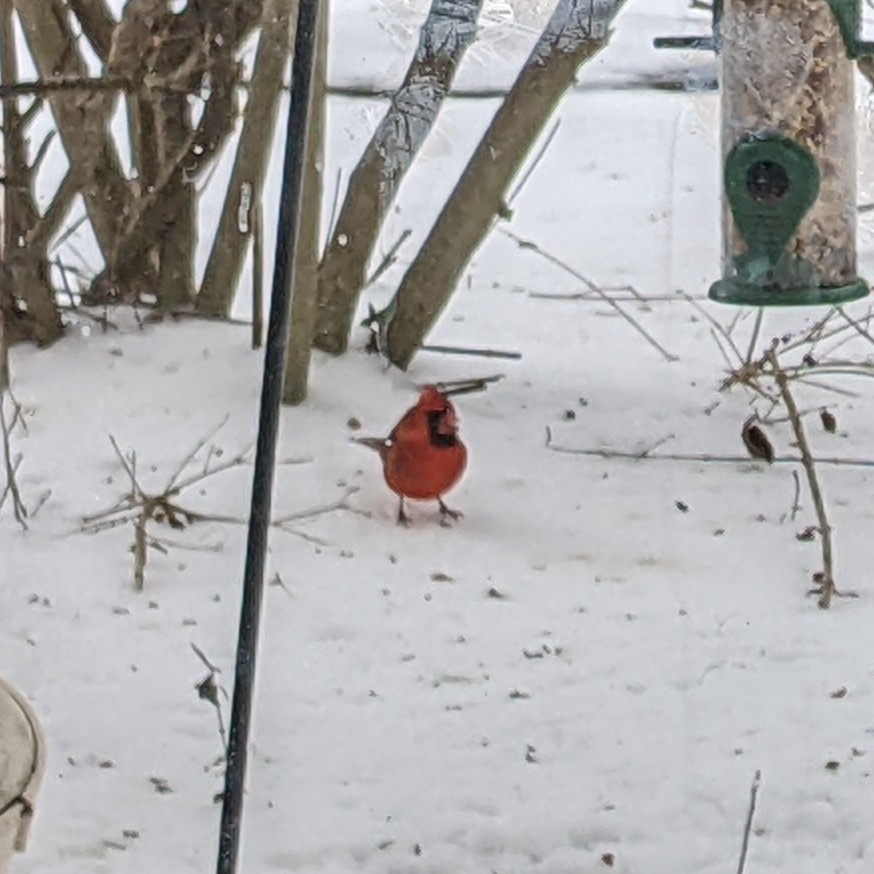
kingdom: Animalia
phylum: Chordata
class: Aves
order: Passeriformes
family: Cardinalidae
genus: Cardinalis
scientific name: Cardinalis cardinalis
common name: Northern cardinal
